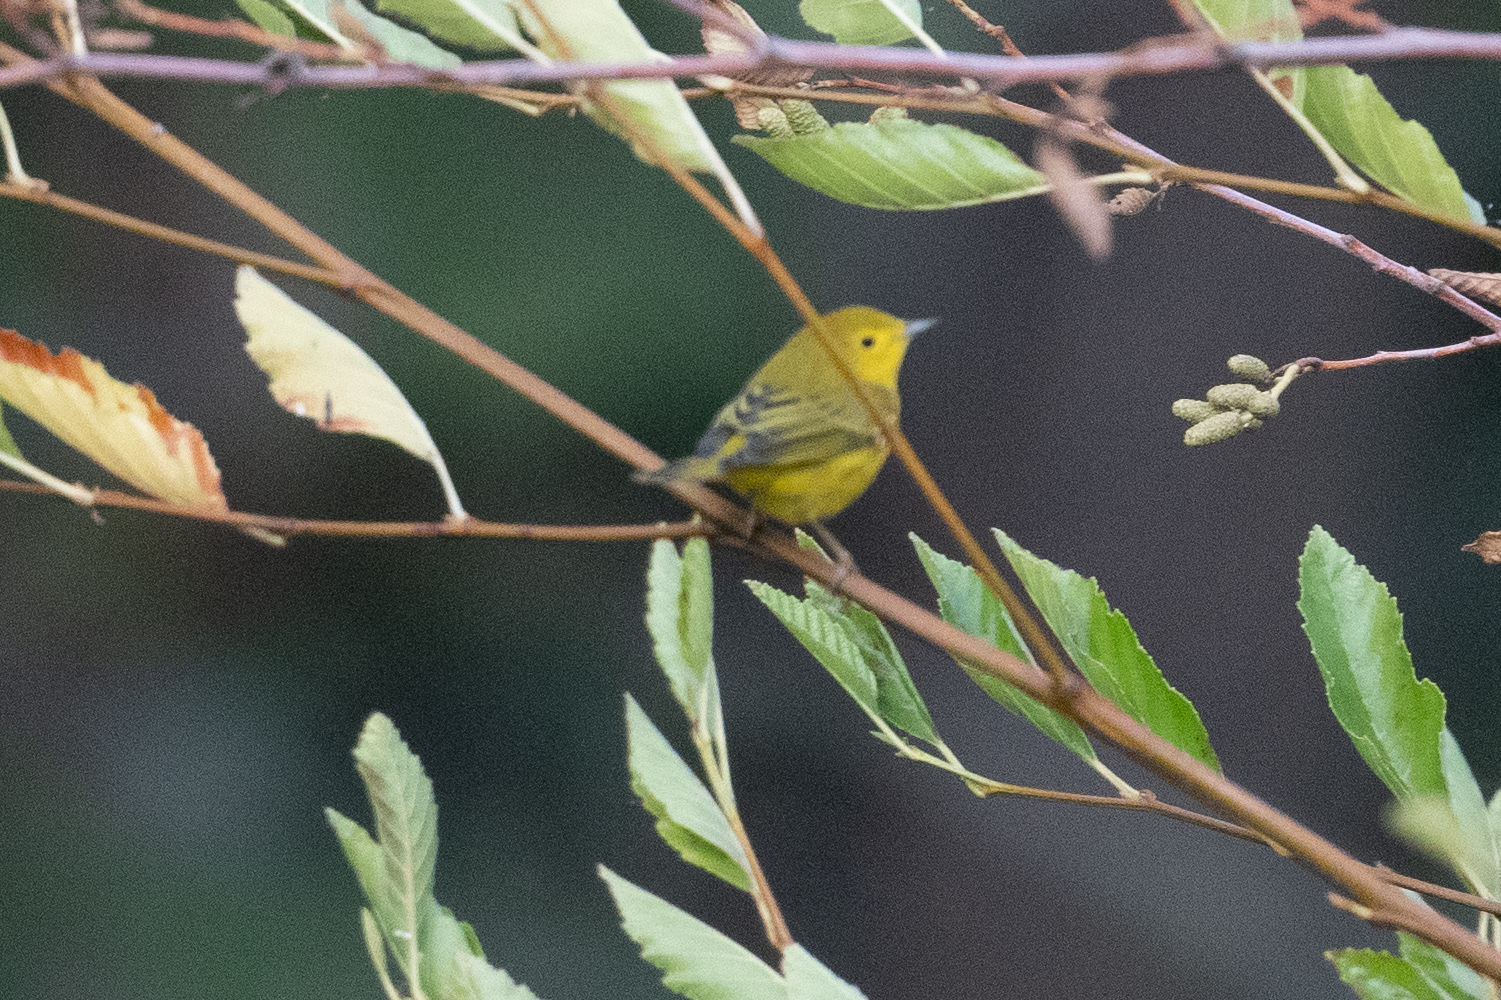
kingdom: Animalia
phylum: Chordata
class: Aves
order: Passeriformes
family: Parulidae
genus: Setophaga
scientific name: Setophaga petechia
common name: Yellow warbler
